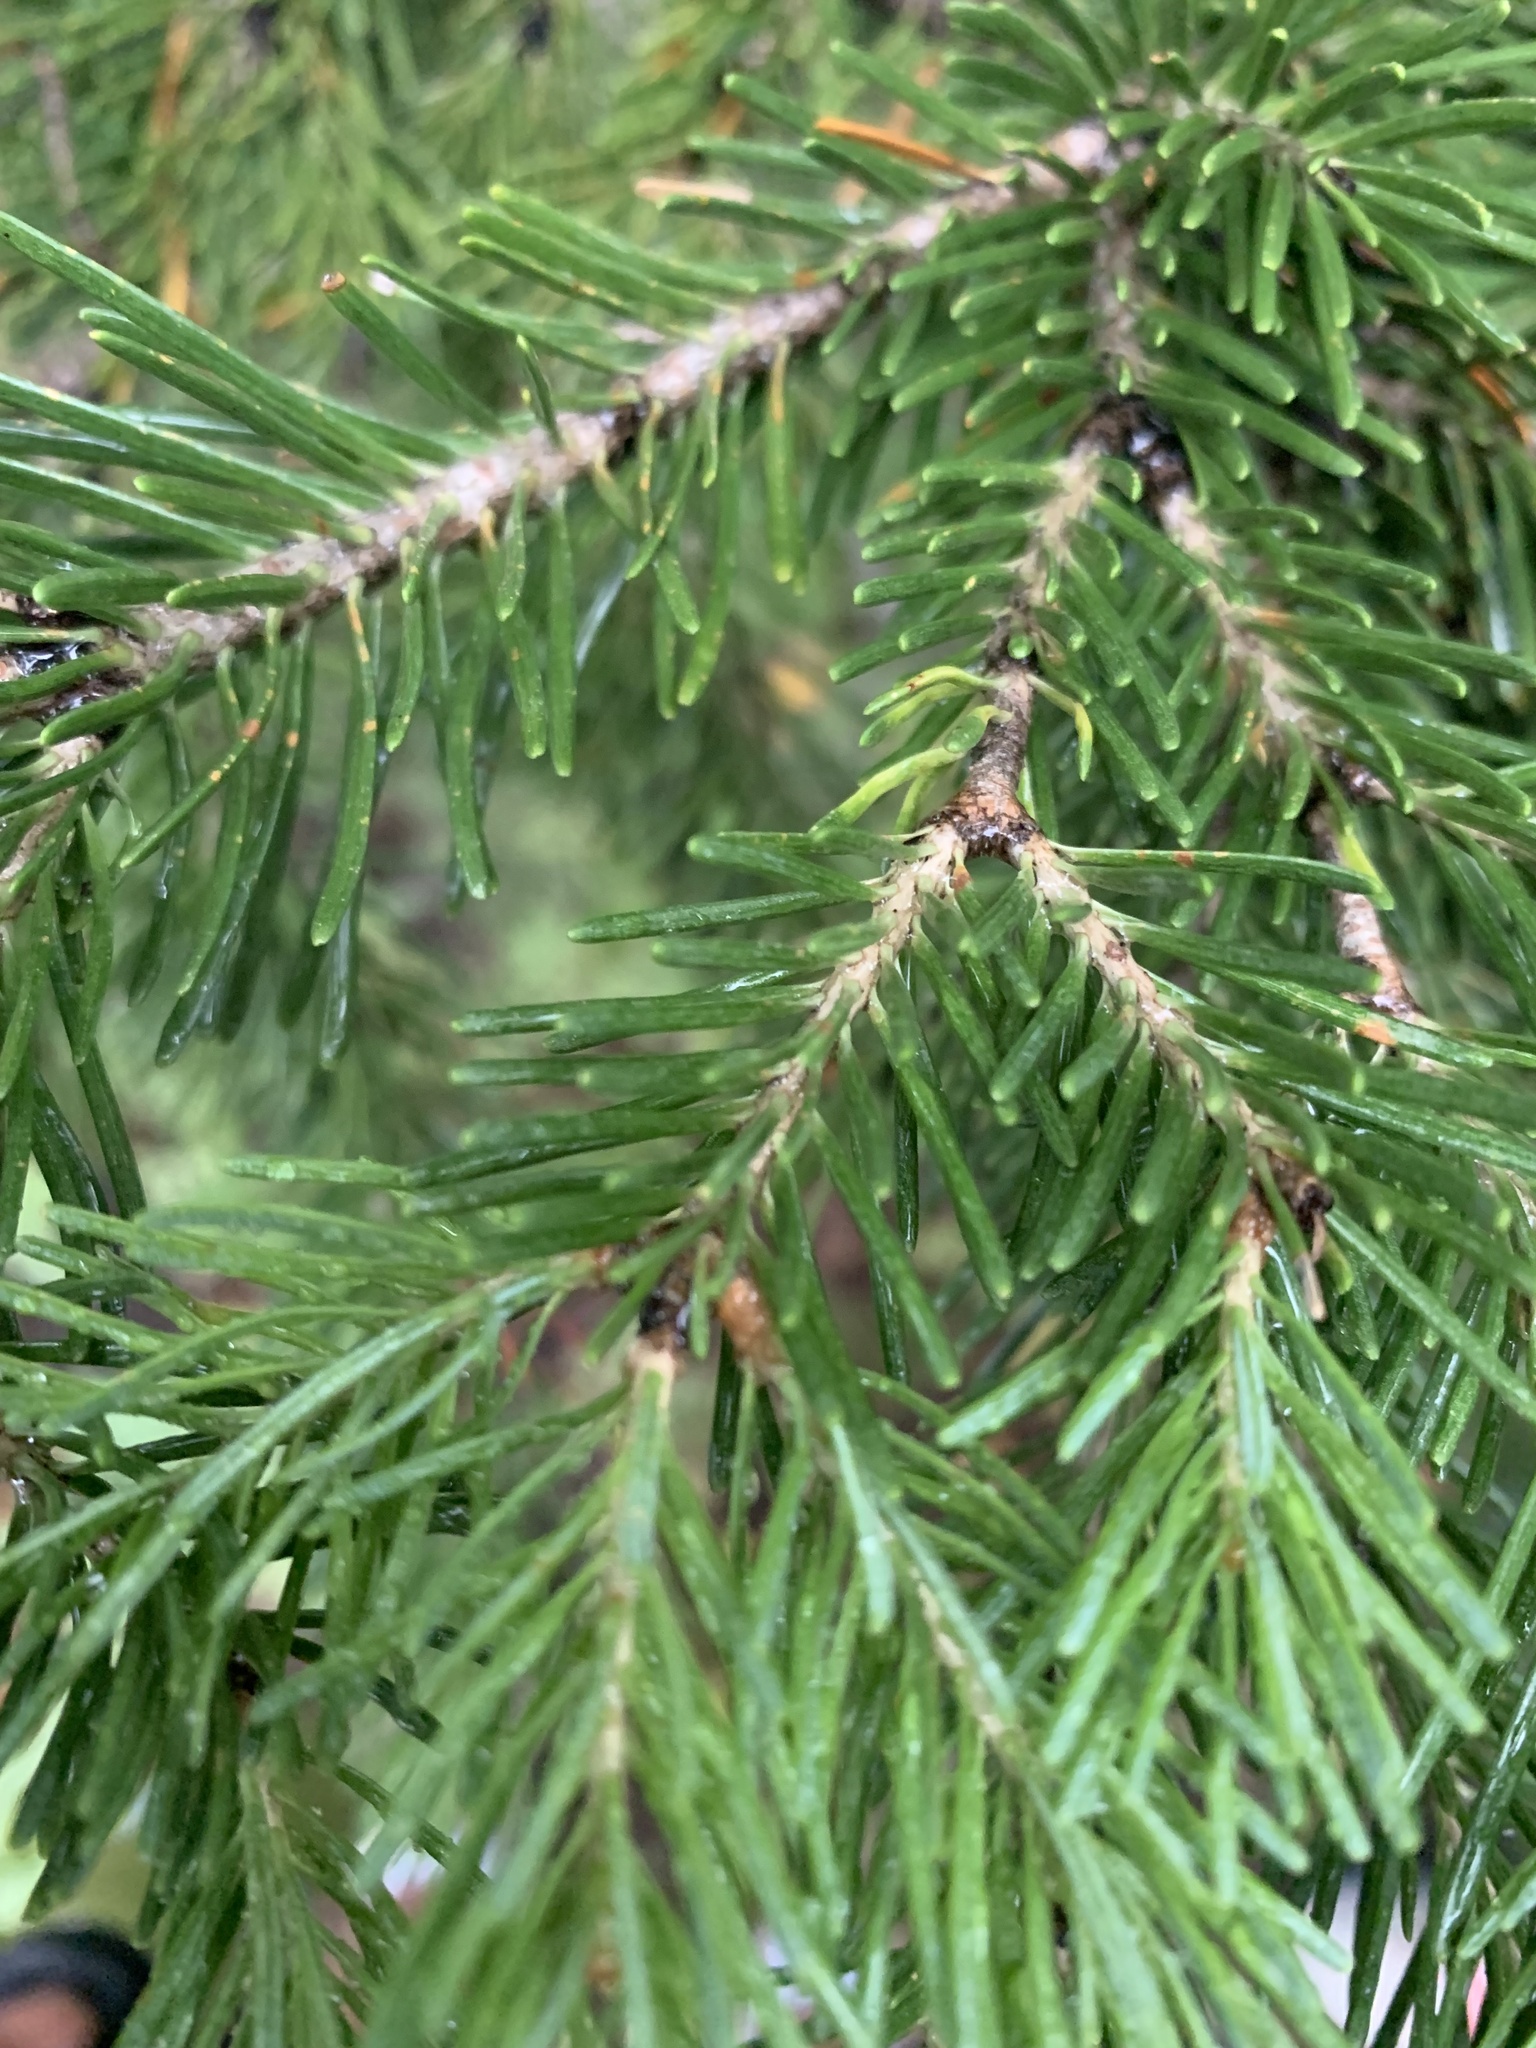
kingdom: Plantae
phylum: Tracheophyta
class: Pinopsida
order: Pinales
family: Pinaceae
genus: Abies
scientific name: Abies lasiocarpa
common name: Subalpine fir
